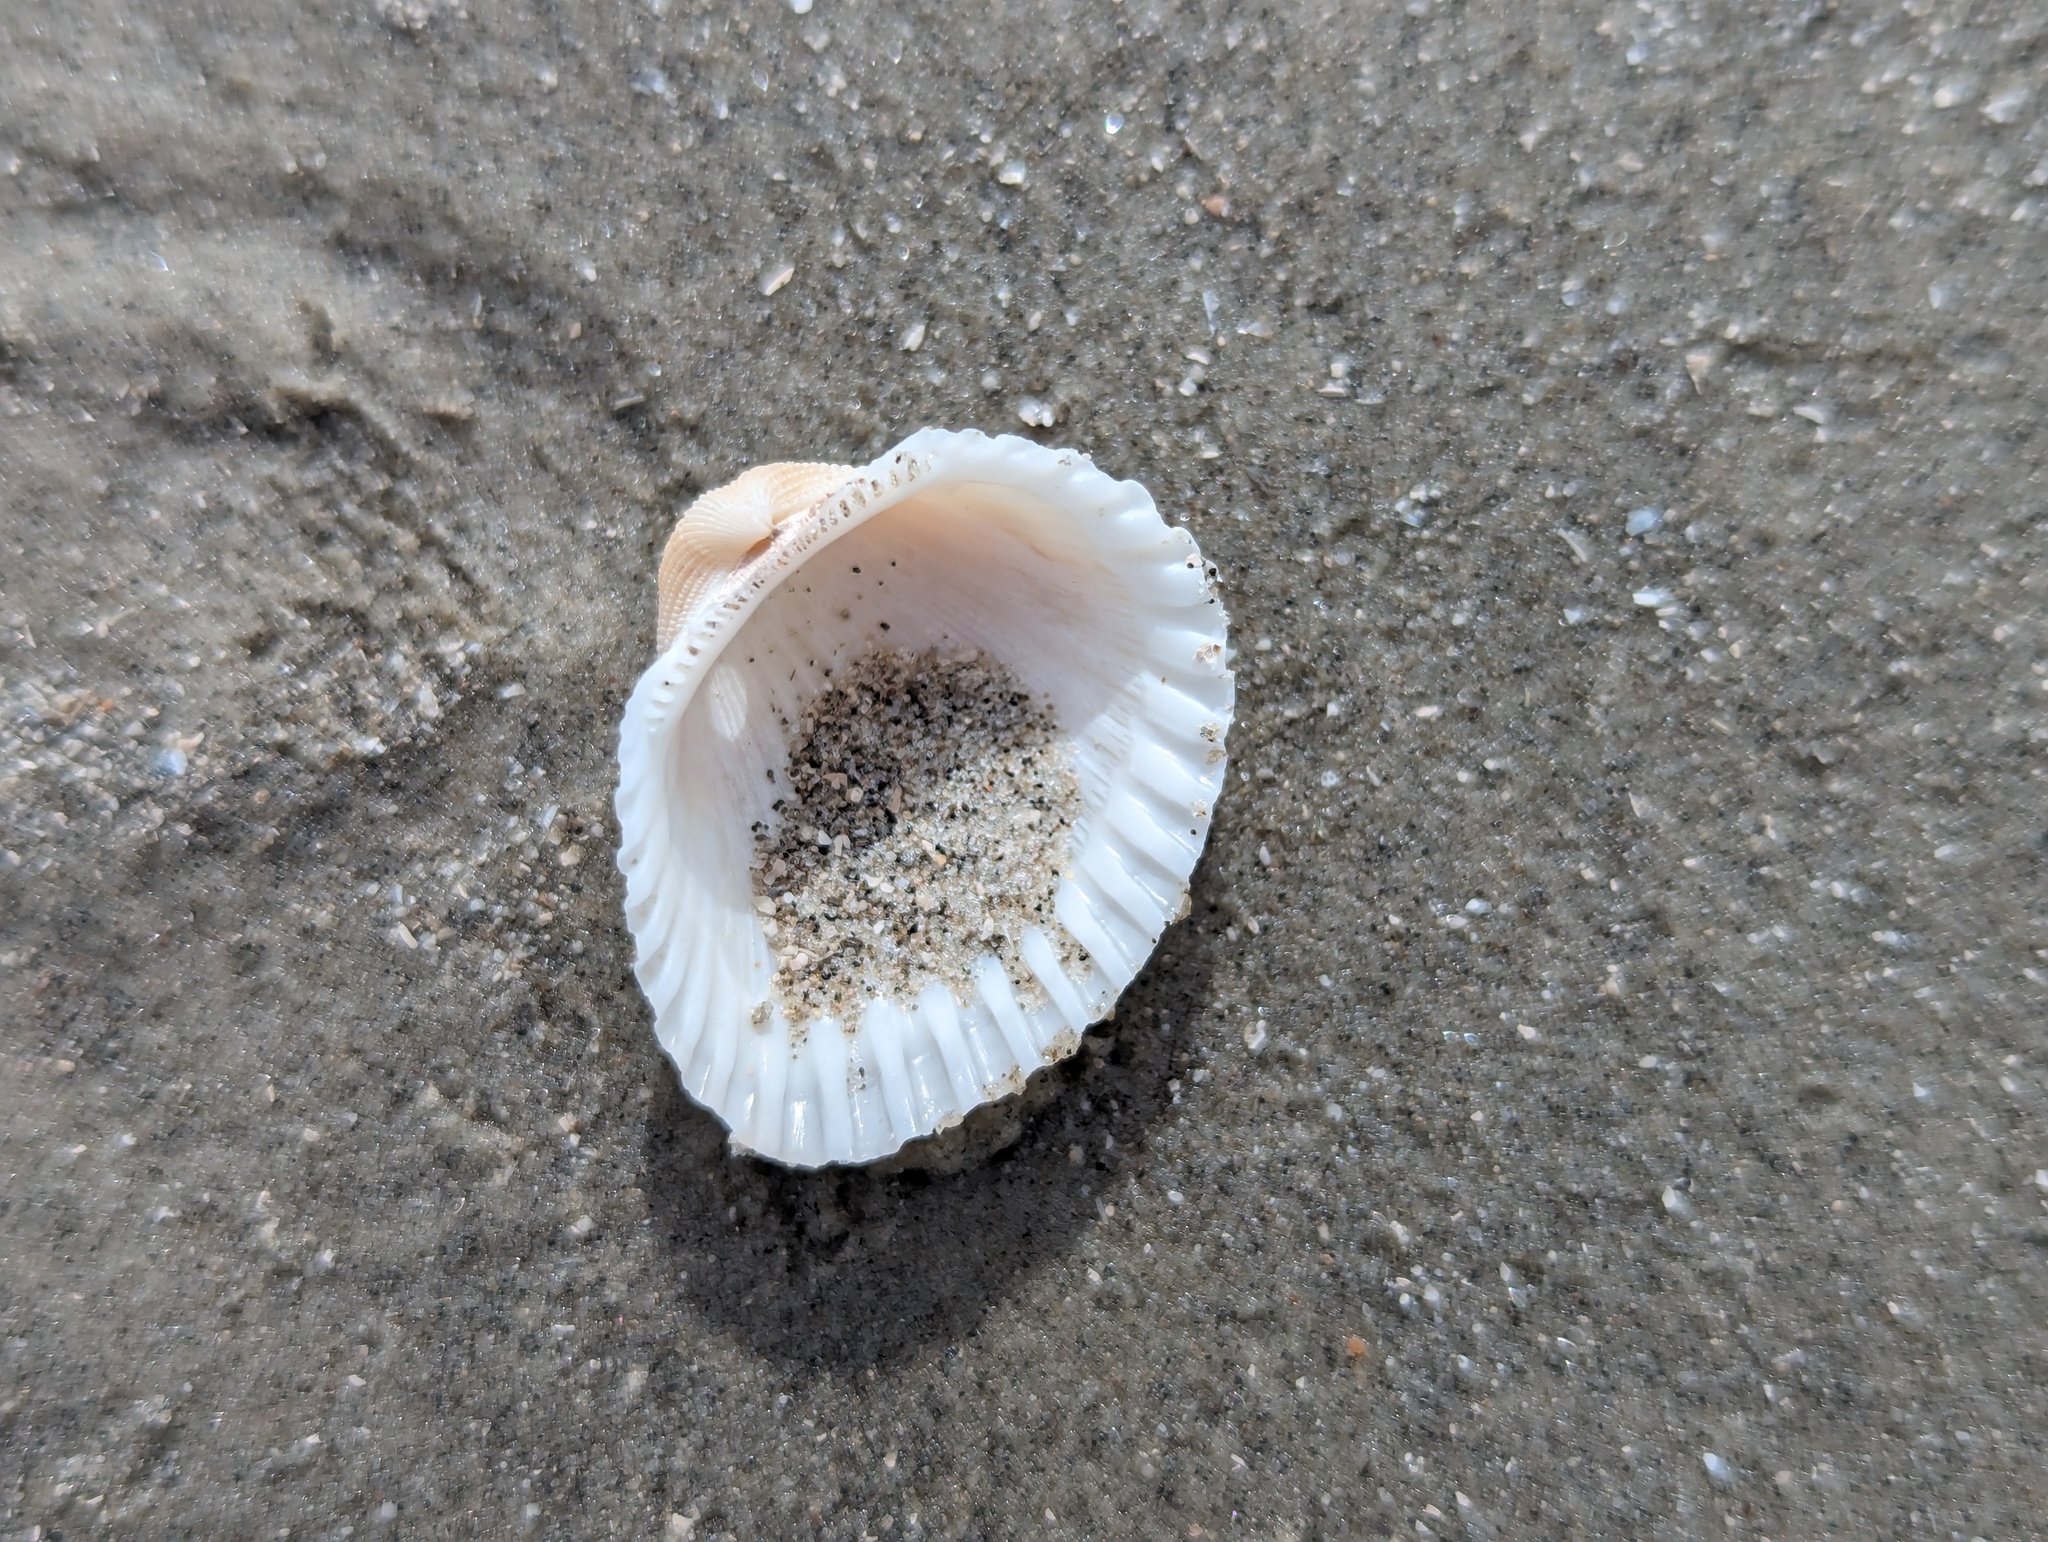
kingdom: Animalia
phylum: Mollusca
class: Bivalvia
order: Arcida
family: Arcidae
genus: Anadara
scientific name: Anadara brasiliana
